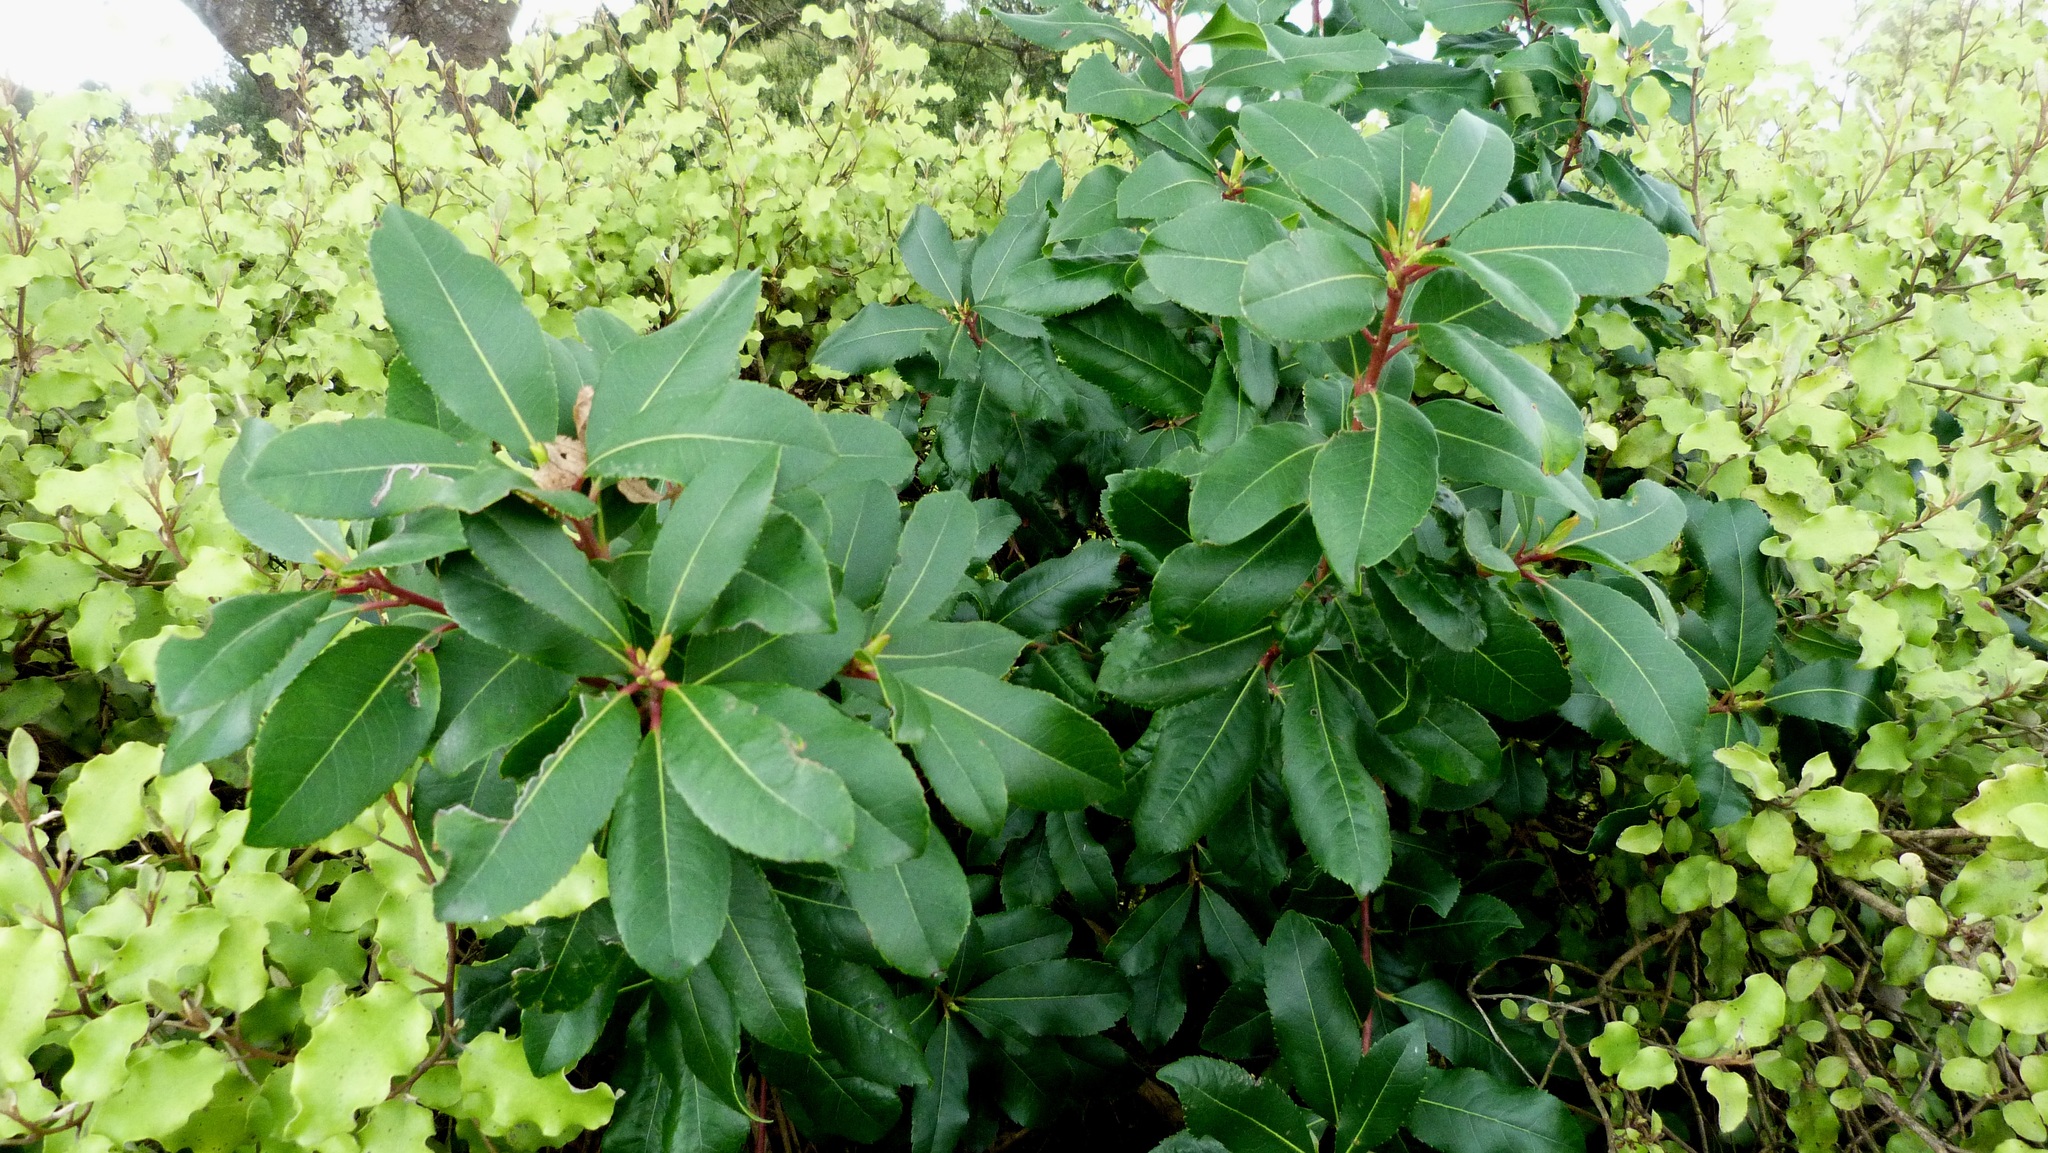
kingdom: Plantae
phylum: Tracheophyta
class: Magnoliopsida
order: Ericales
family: Ericaceae
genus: Arbutus
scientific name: Arbutus unedo
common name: Strawberry-tree
